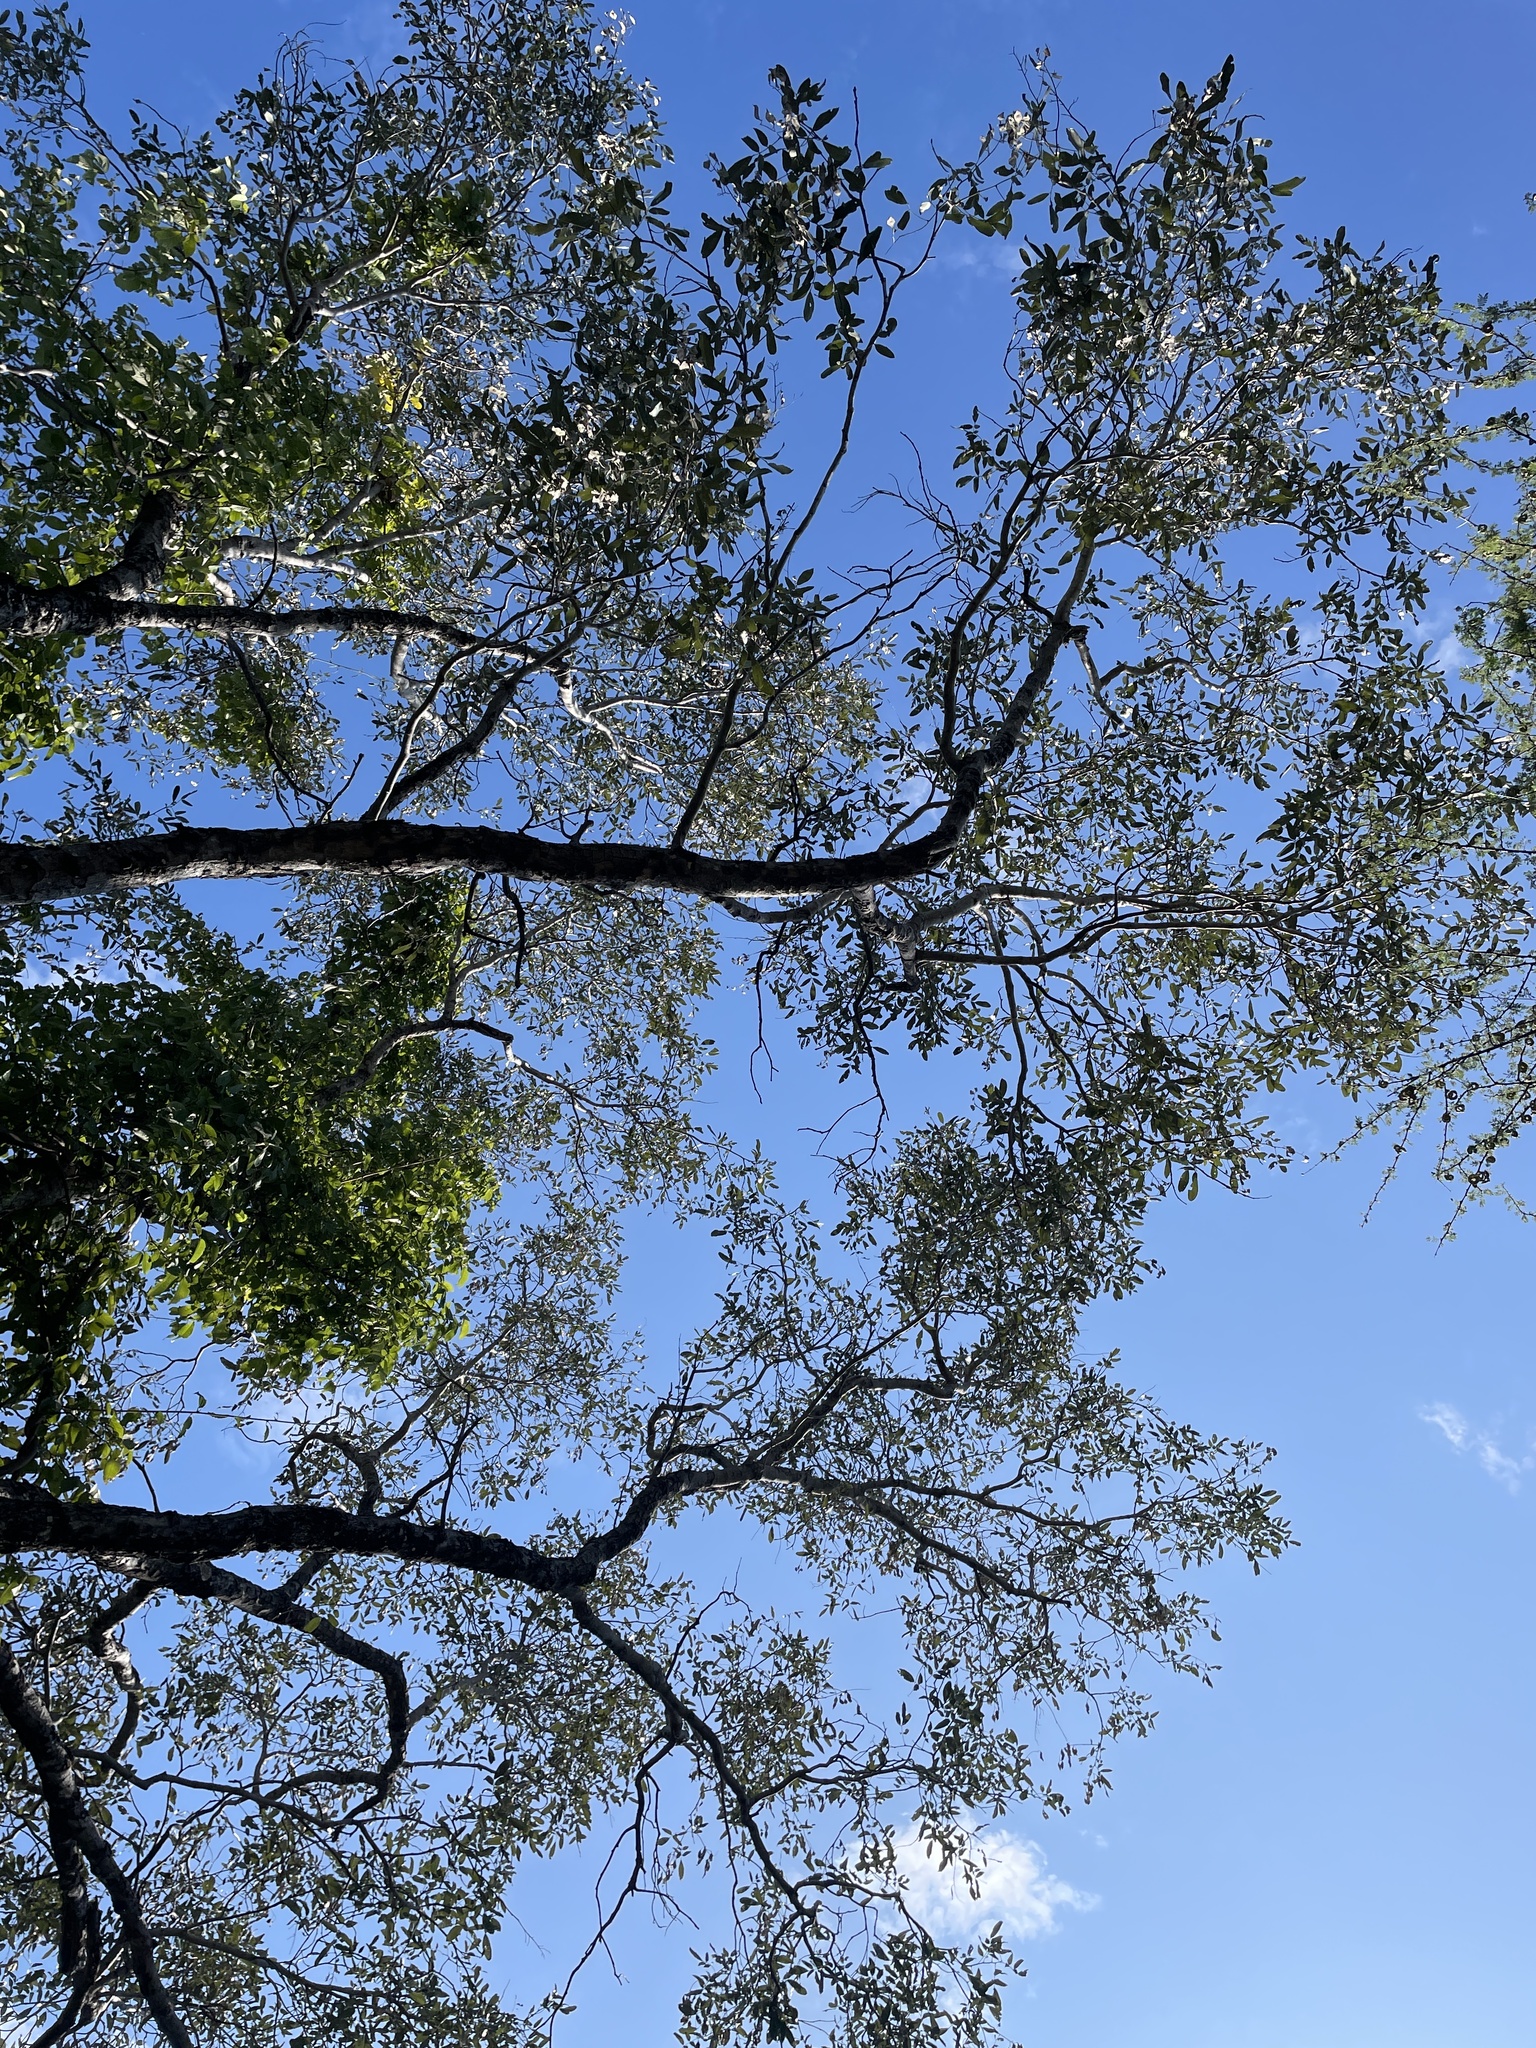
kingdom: Plantae
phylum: Tracheophyta
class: Magnoliopsida
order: Fabales
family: Fabaceae
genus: Philenoptera
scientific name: Philenoptera violacea
